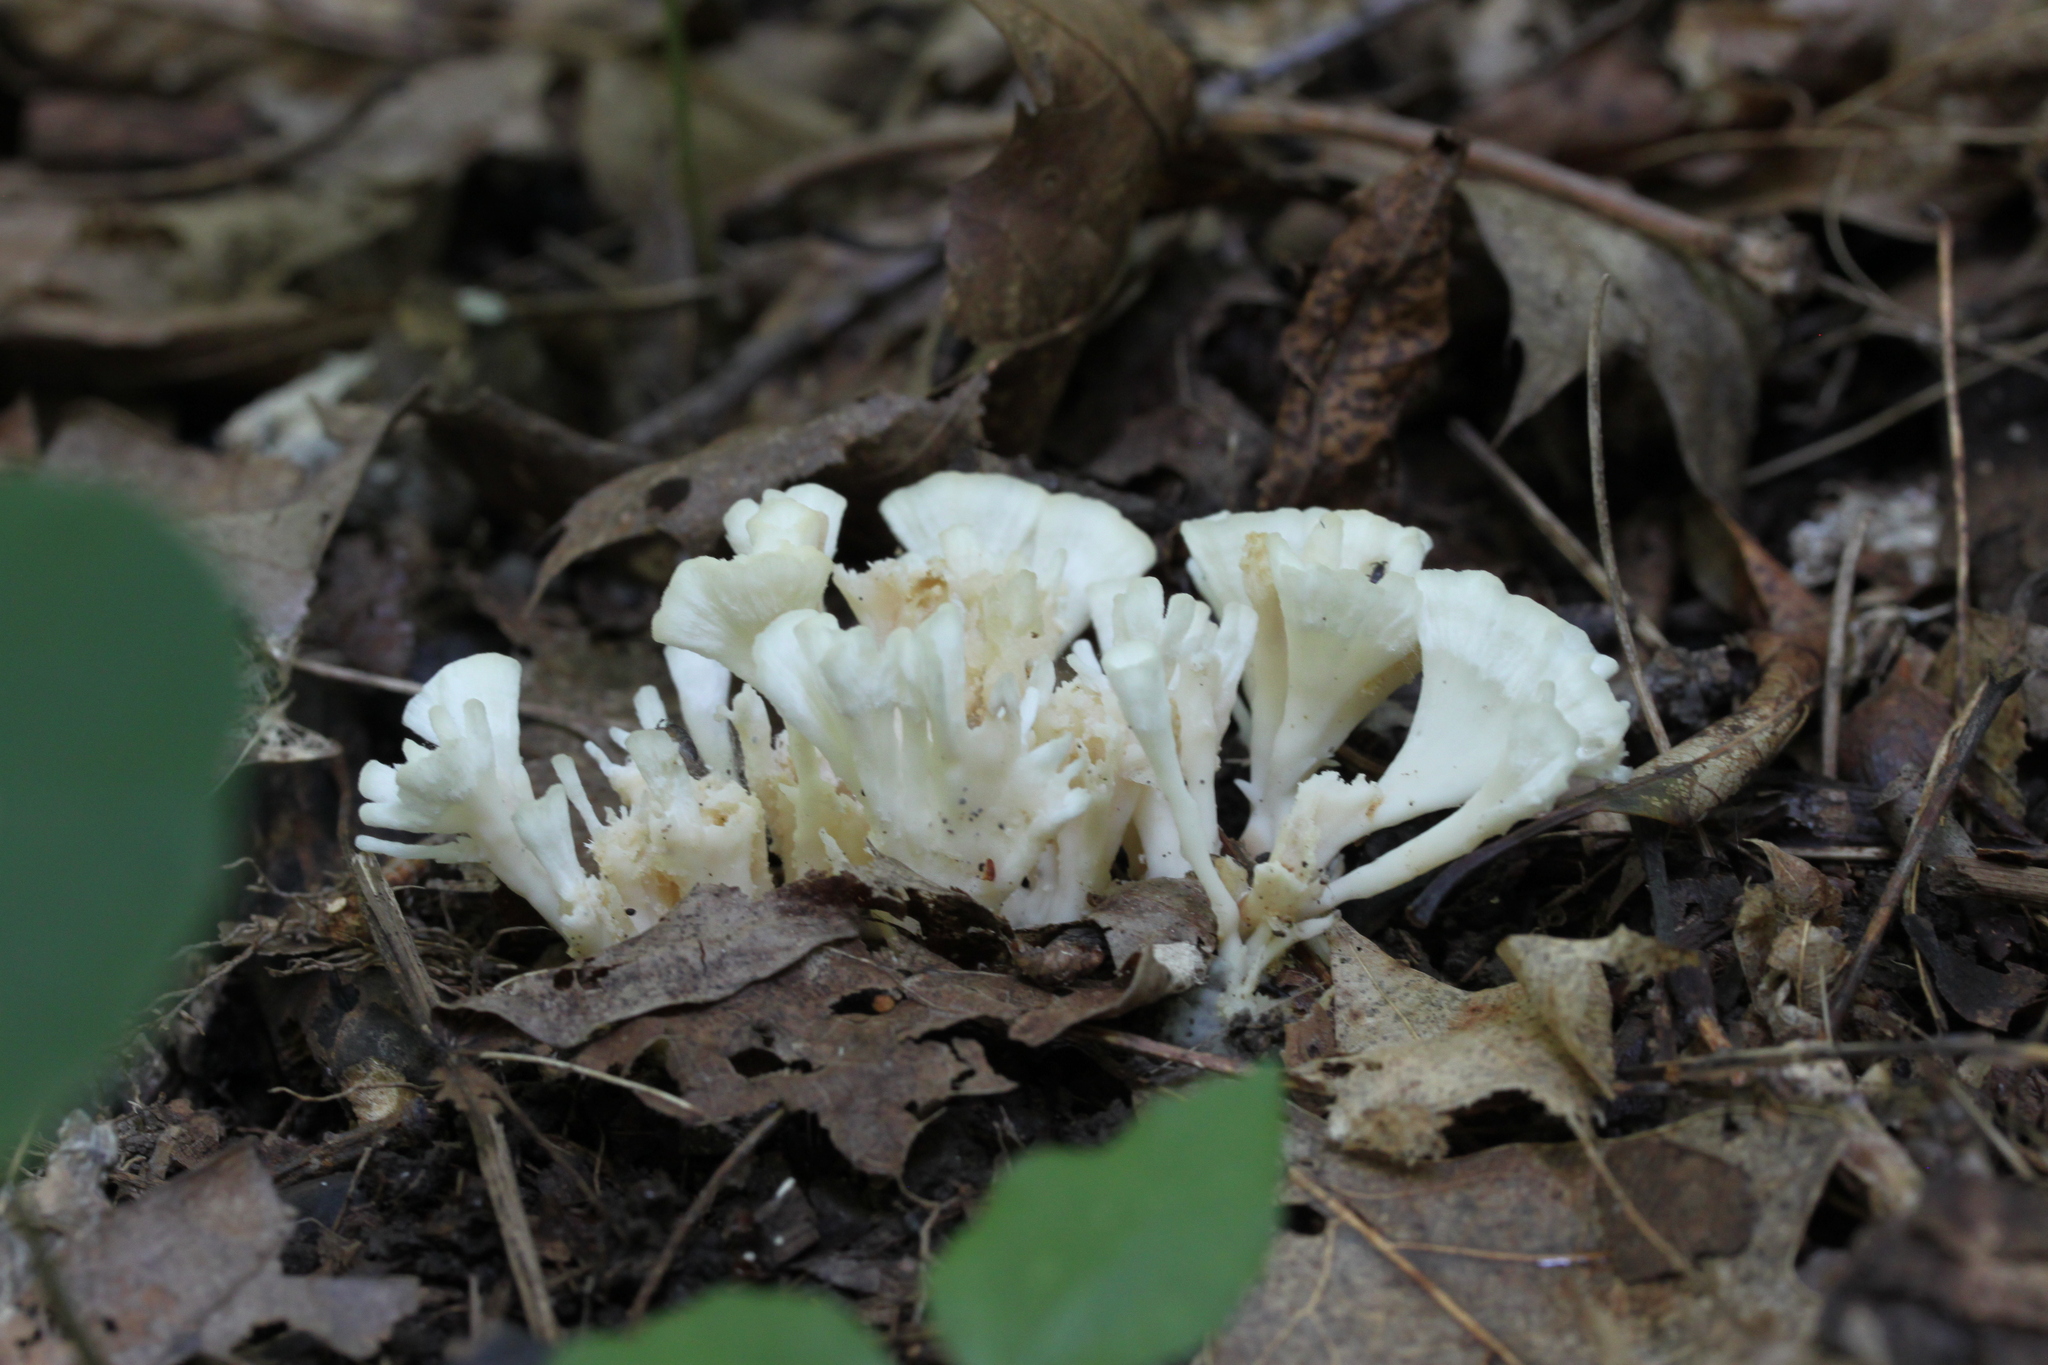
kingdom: Fungi
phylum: Basidiomycota
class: Agaricomycetes
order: Sebacinales
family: Sebacinaceae
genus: Sebacina
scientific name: Sebacina schweinitzii
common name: Jellied false coral fungus
